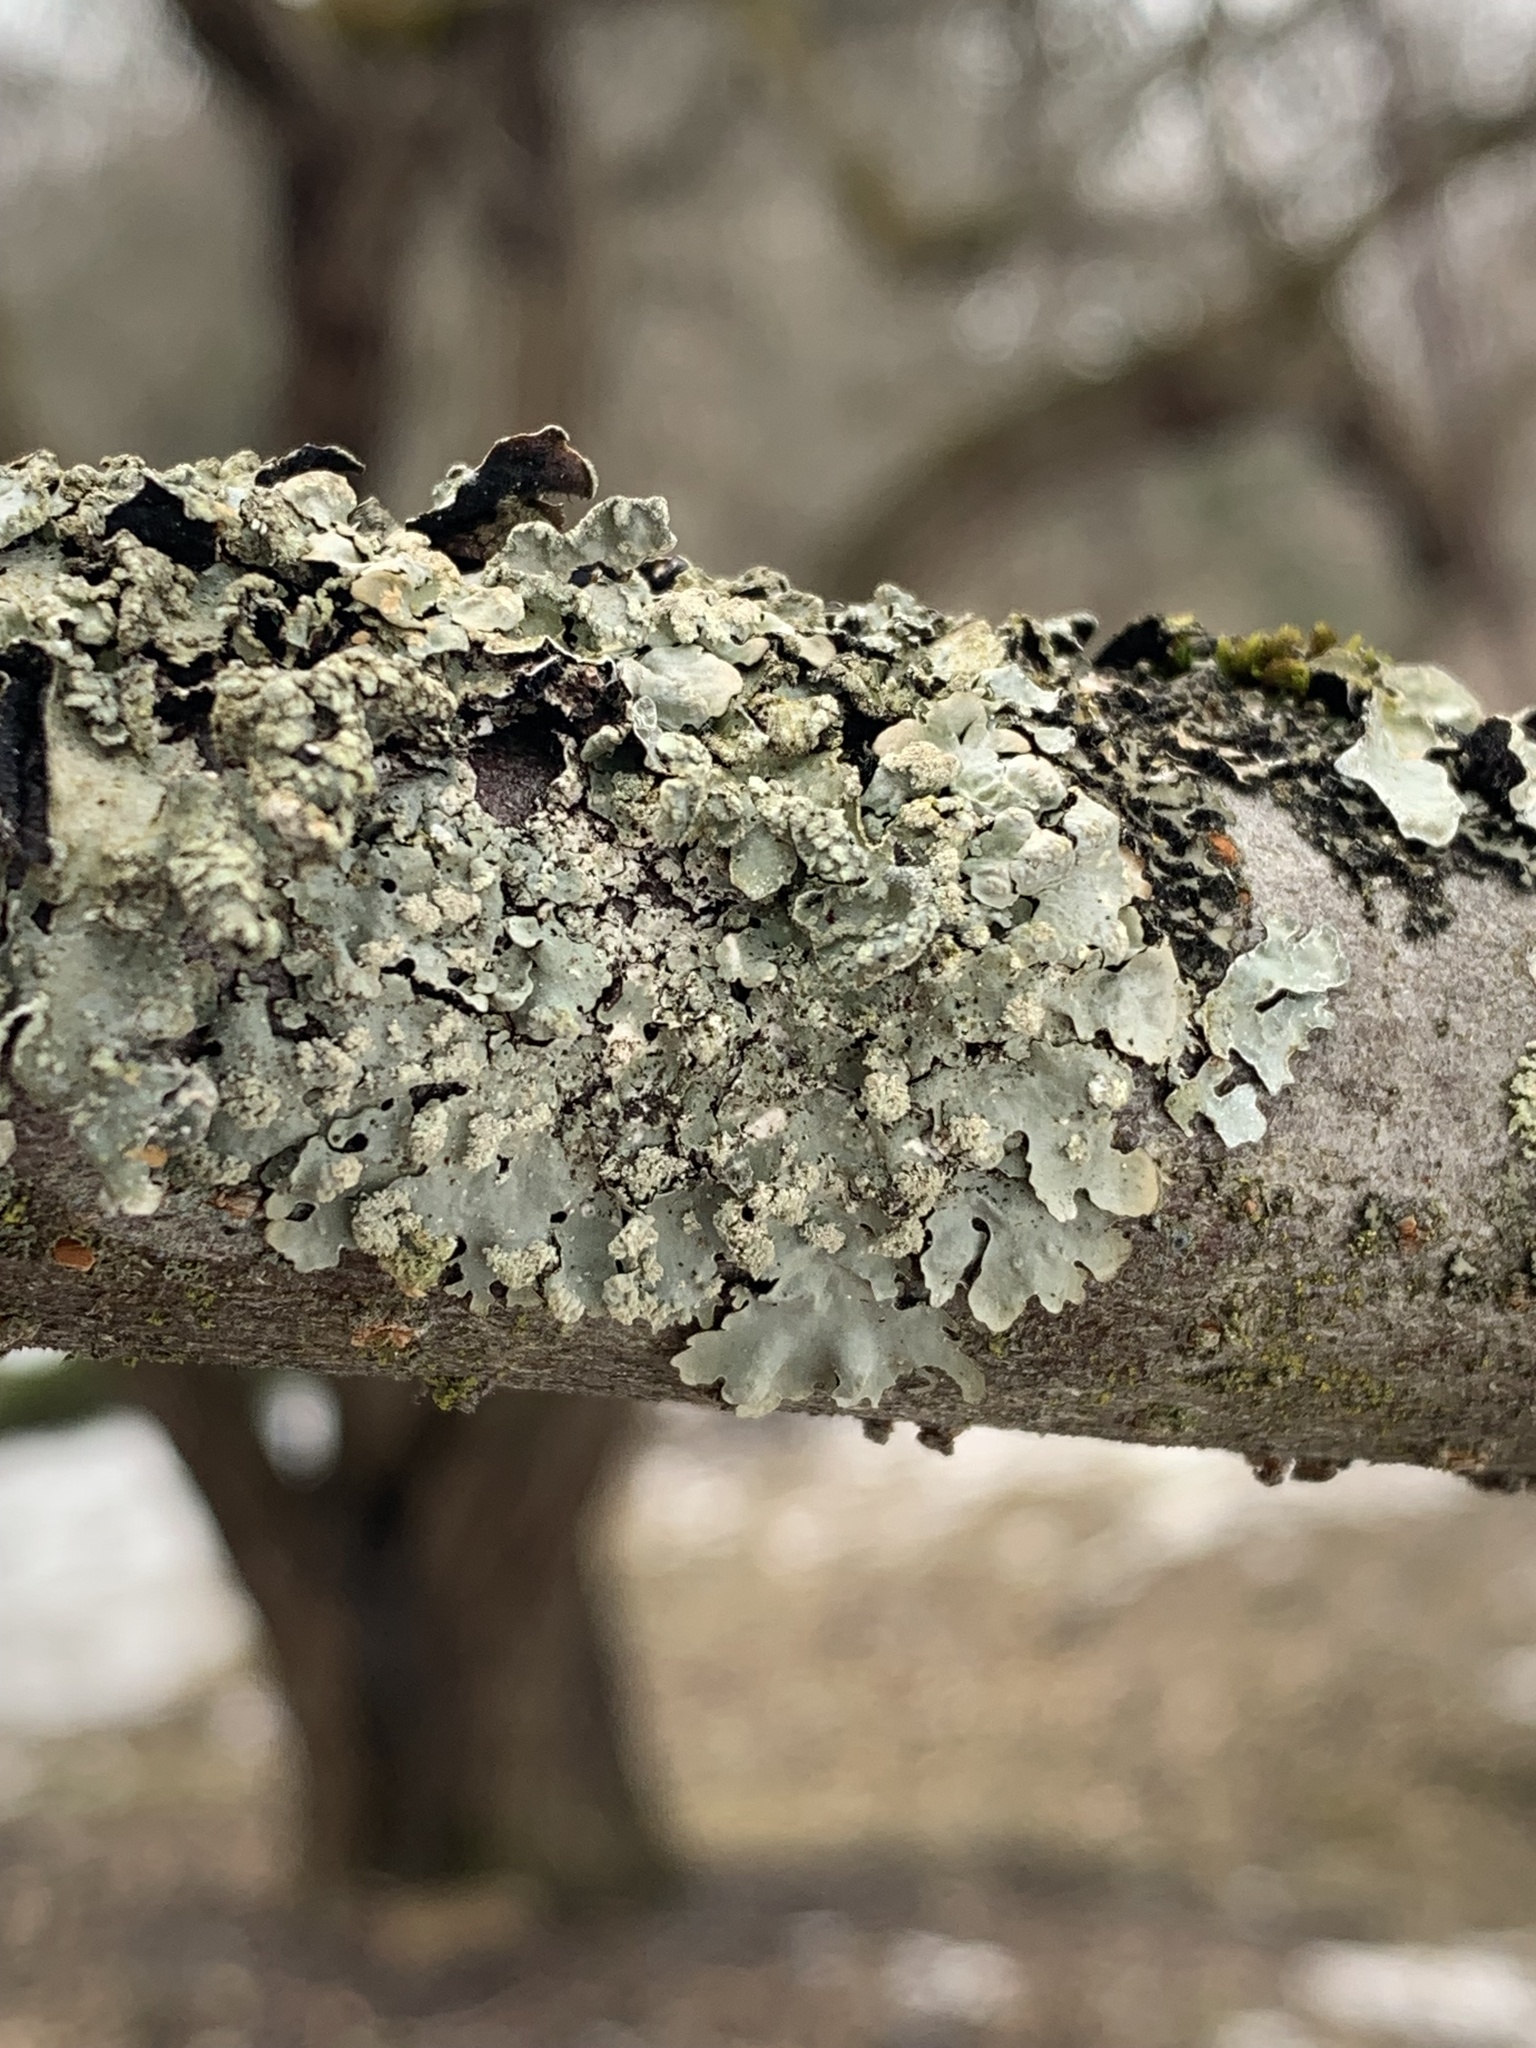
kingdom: Fungi
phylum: Ascomycota
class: Lecanoromycetes
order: Lecanorales
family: Parmeliaceae
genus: Myelochroa
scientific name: Myelochroa aurulenta
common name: Powdery axil-bristle lichen
